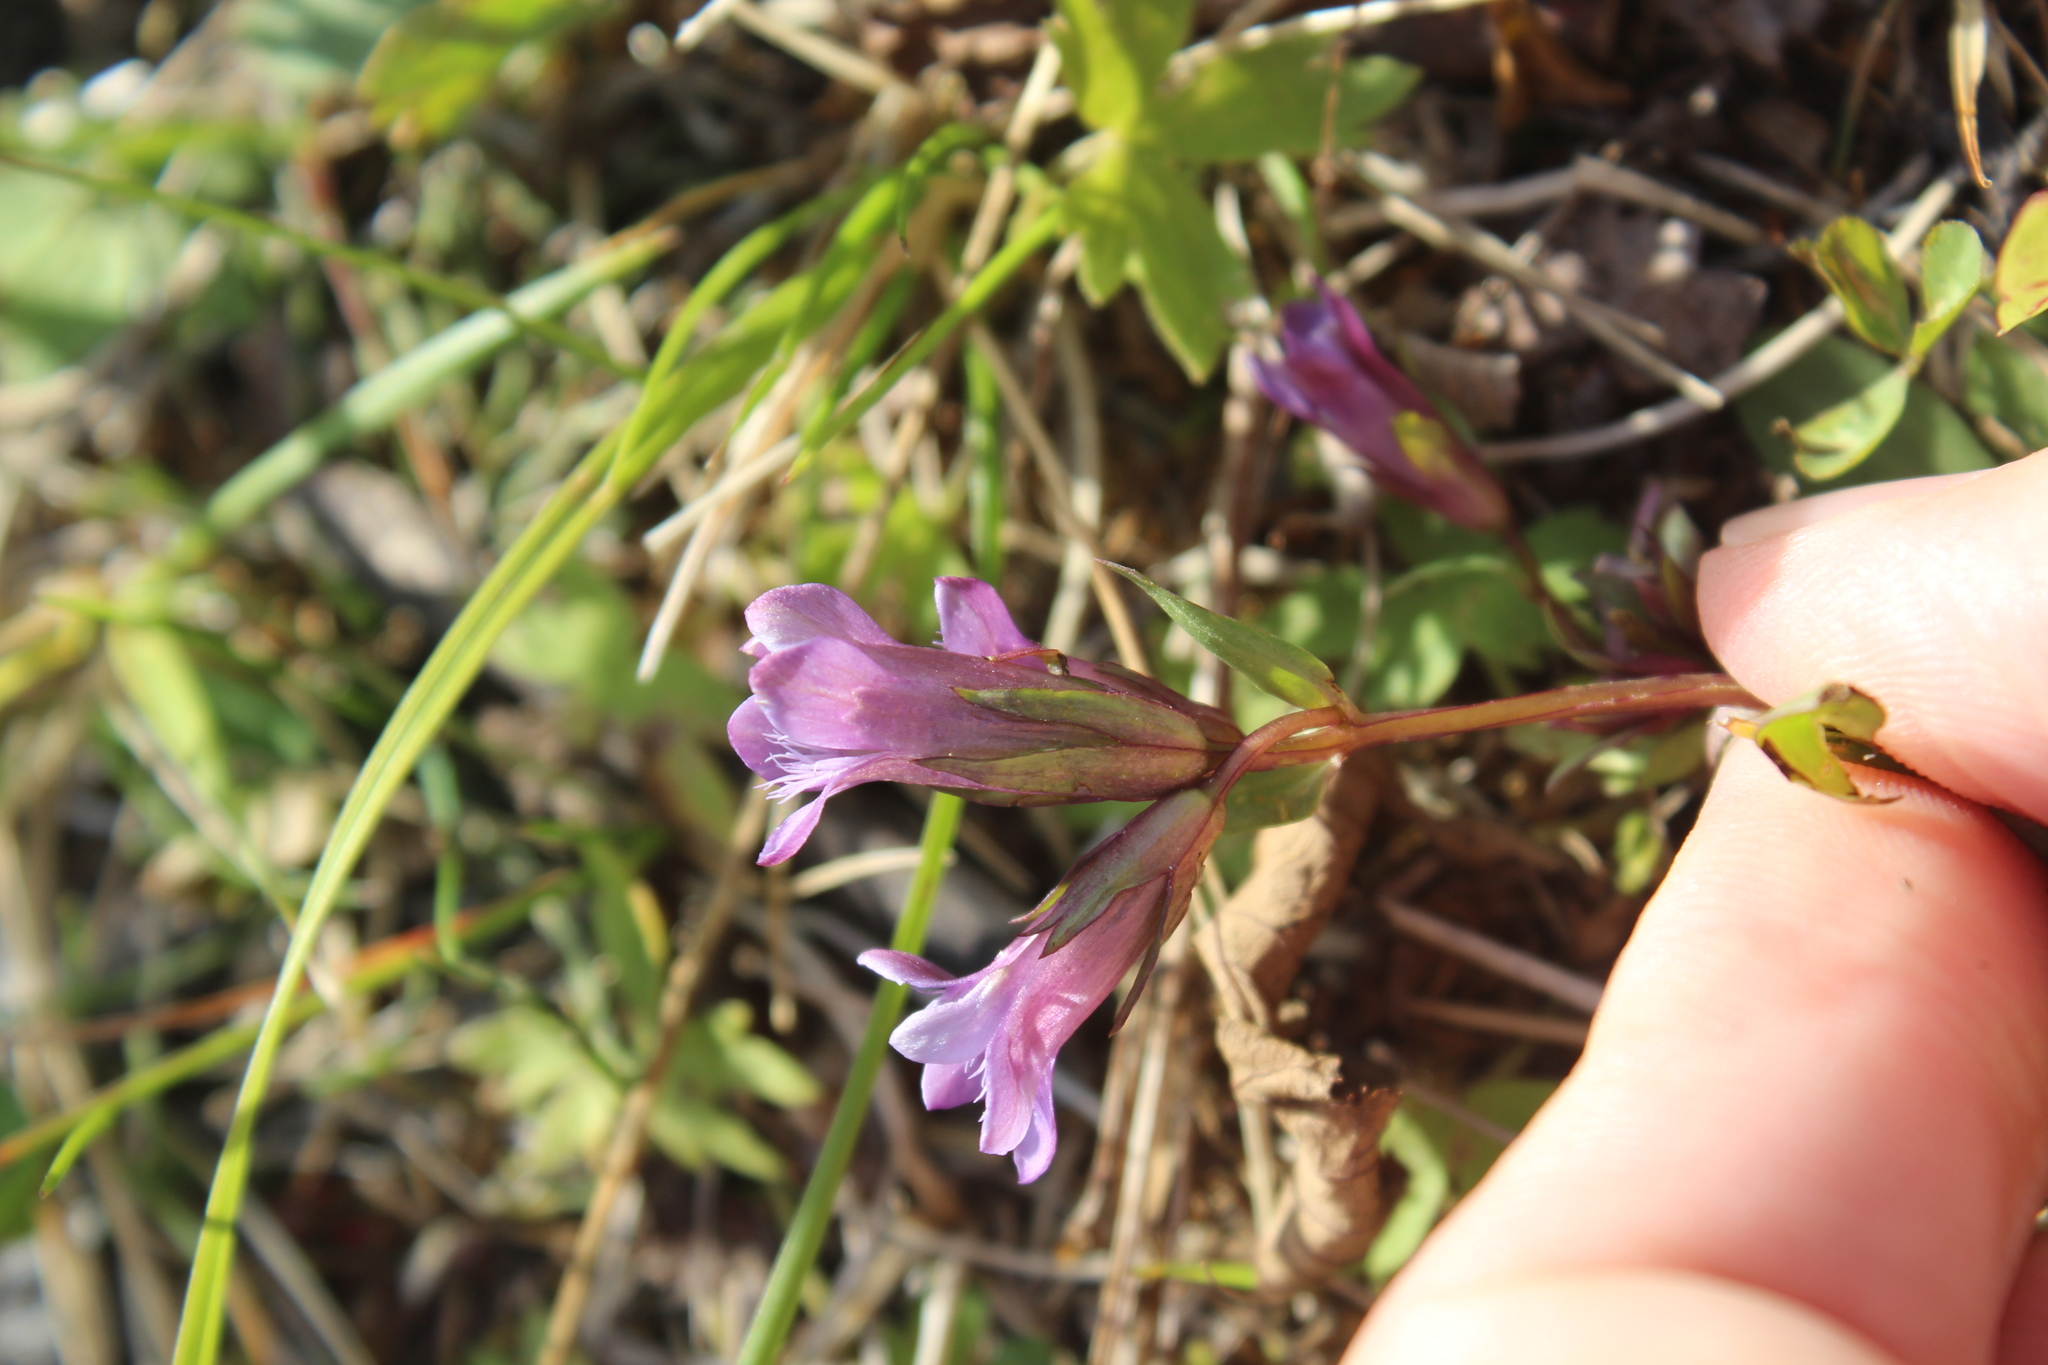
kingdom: Plantae
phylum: Tracheophyta
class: Magnoliopsida
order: Gentianales
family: Gentianaceae
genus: Gentianella
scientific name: Gentianella amarella
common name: Autumn gentian
